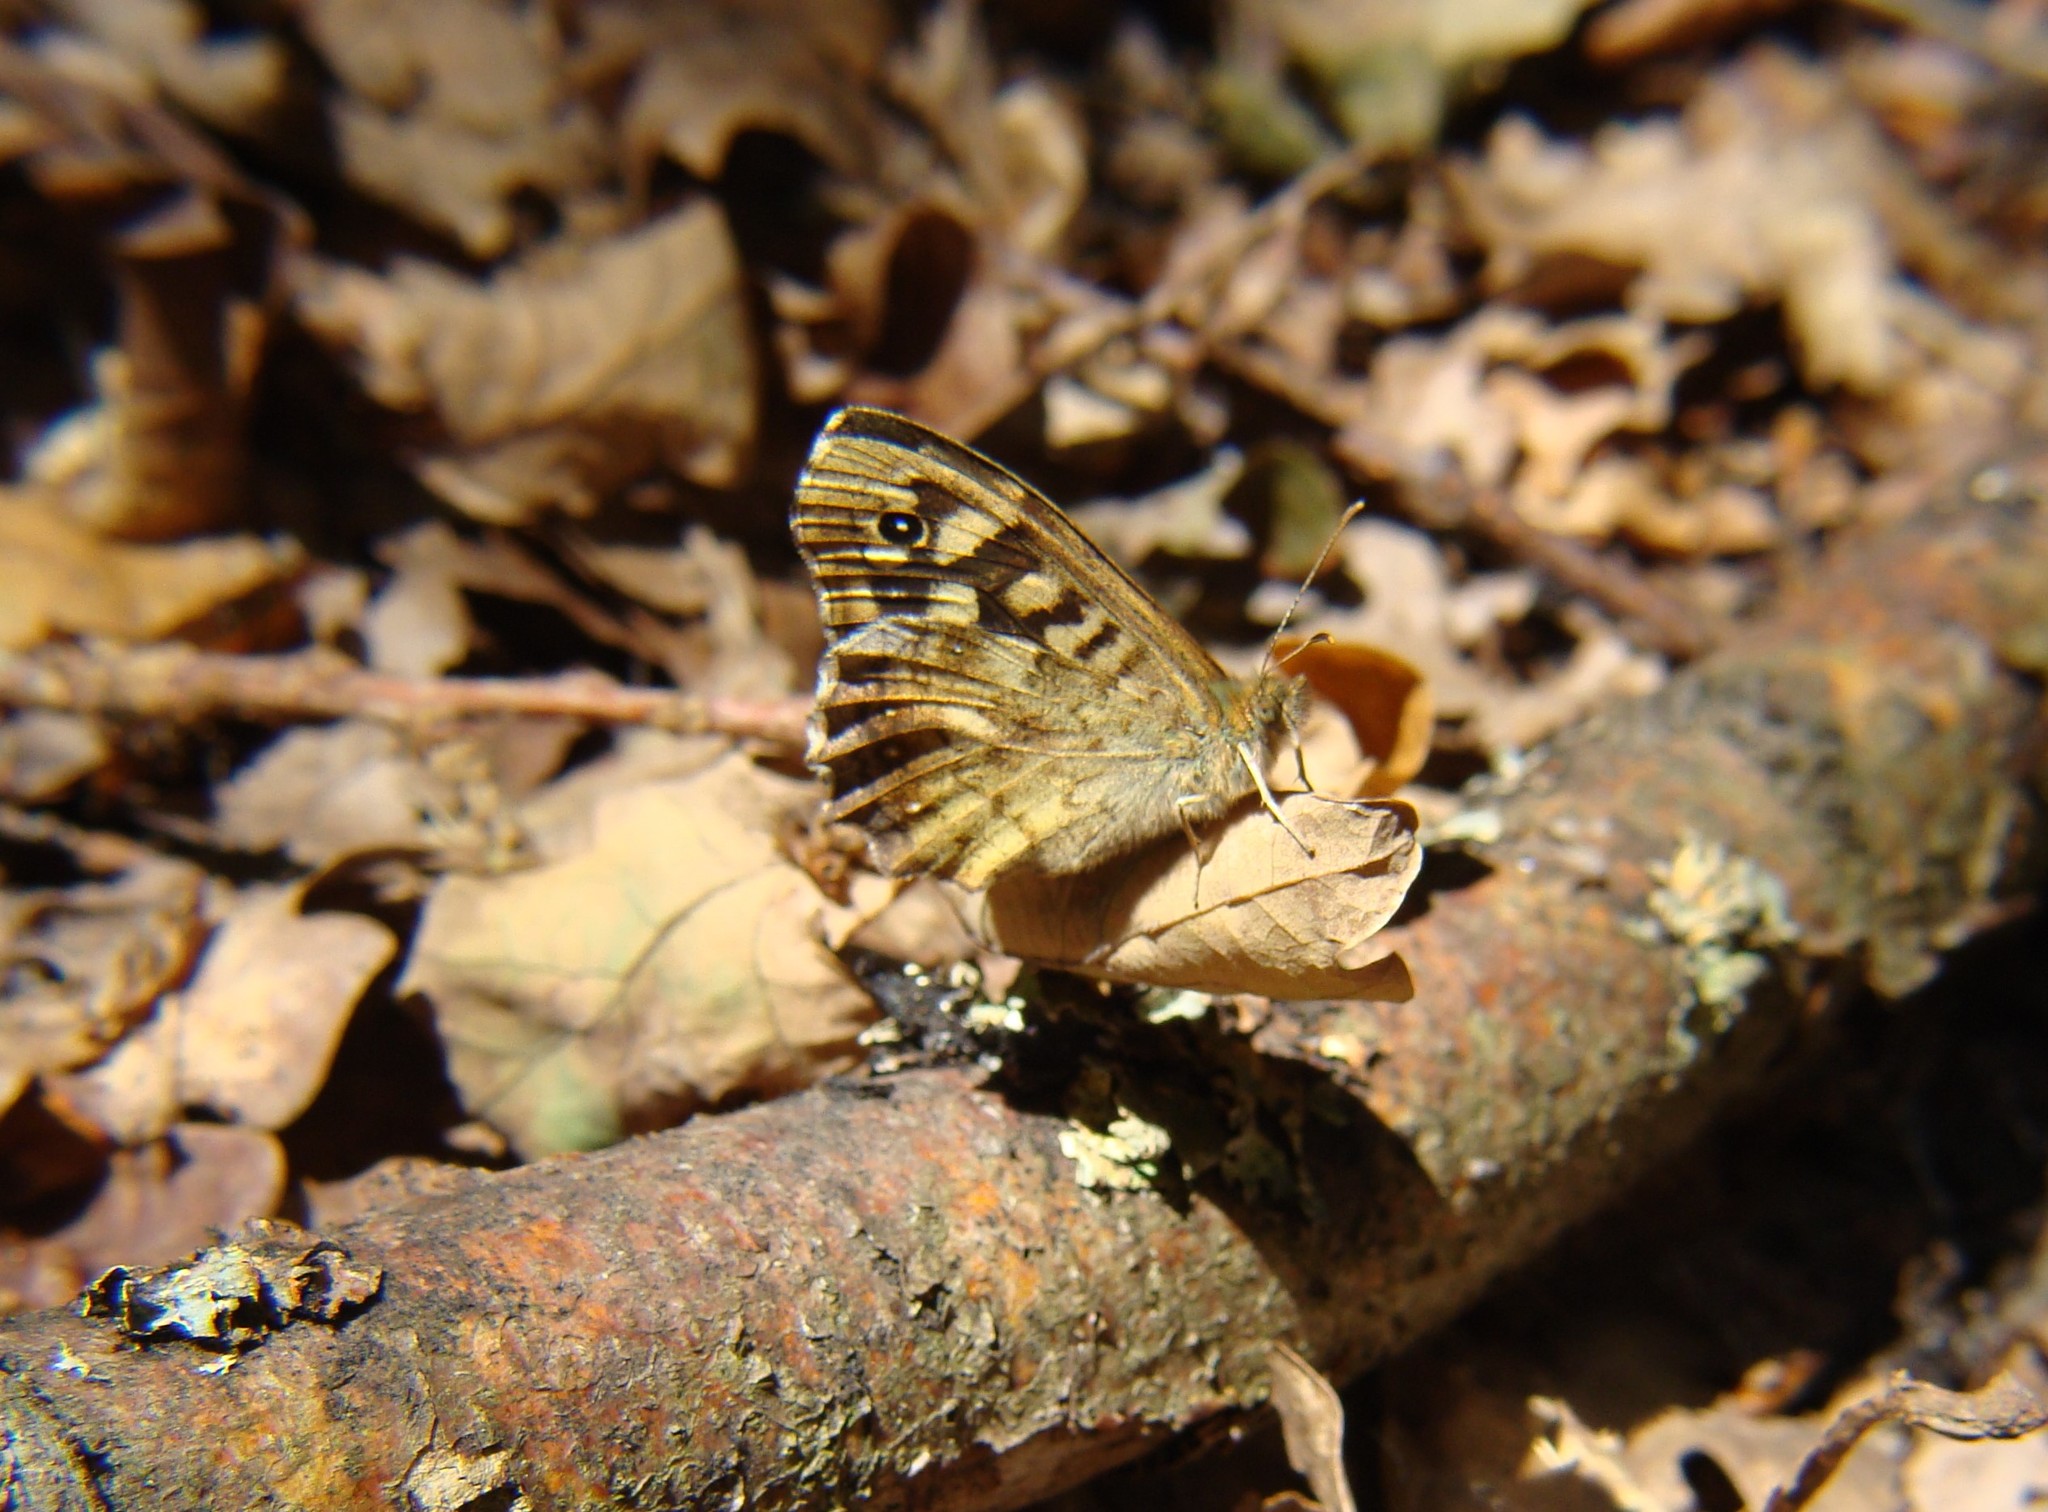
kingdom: Animalia
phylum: Arthropoda
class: Insecta
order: Lepidoptera
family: Nymphalidae
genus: Pararge
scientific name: Pararge aegeria
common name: Speckled wood
